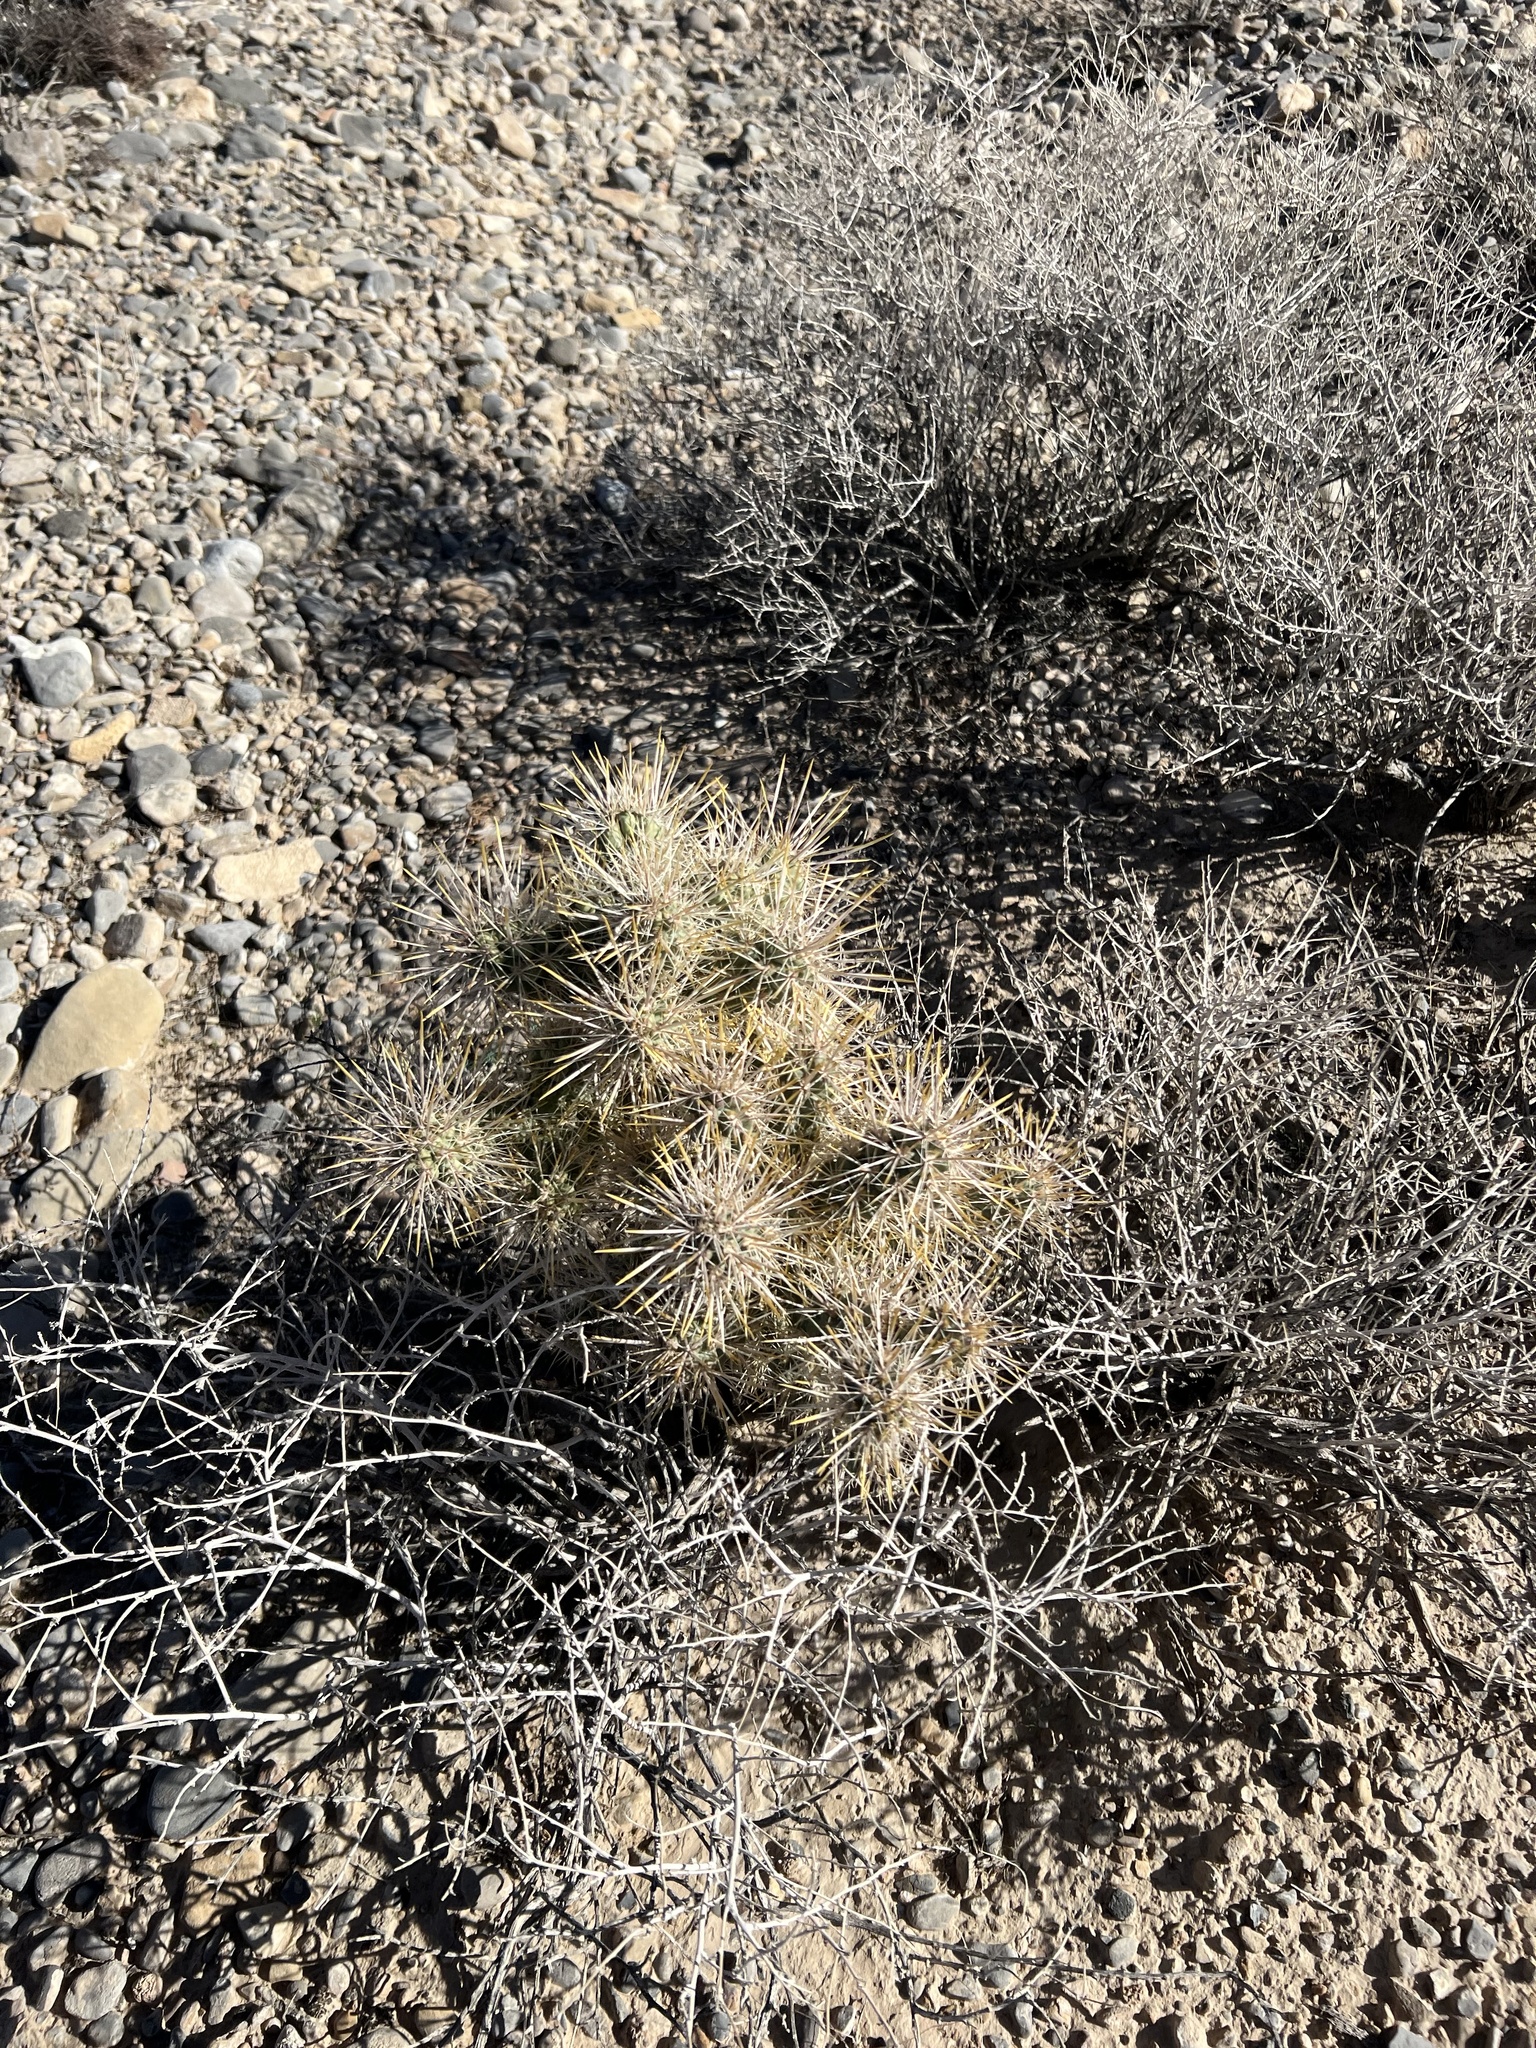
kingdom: Plantae
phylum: Tracheophyta
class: Magnoliopsida
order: Caryophyllales
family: Cactaceae
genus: Cylindropuntia
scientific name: Cylindropuntia echinocarpa
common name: Ground cholla
